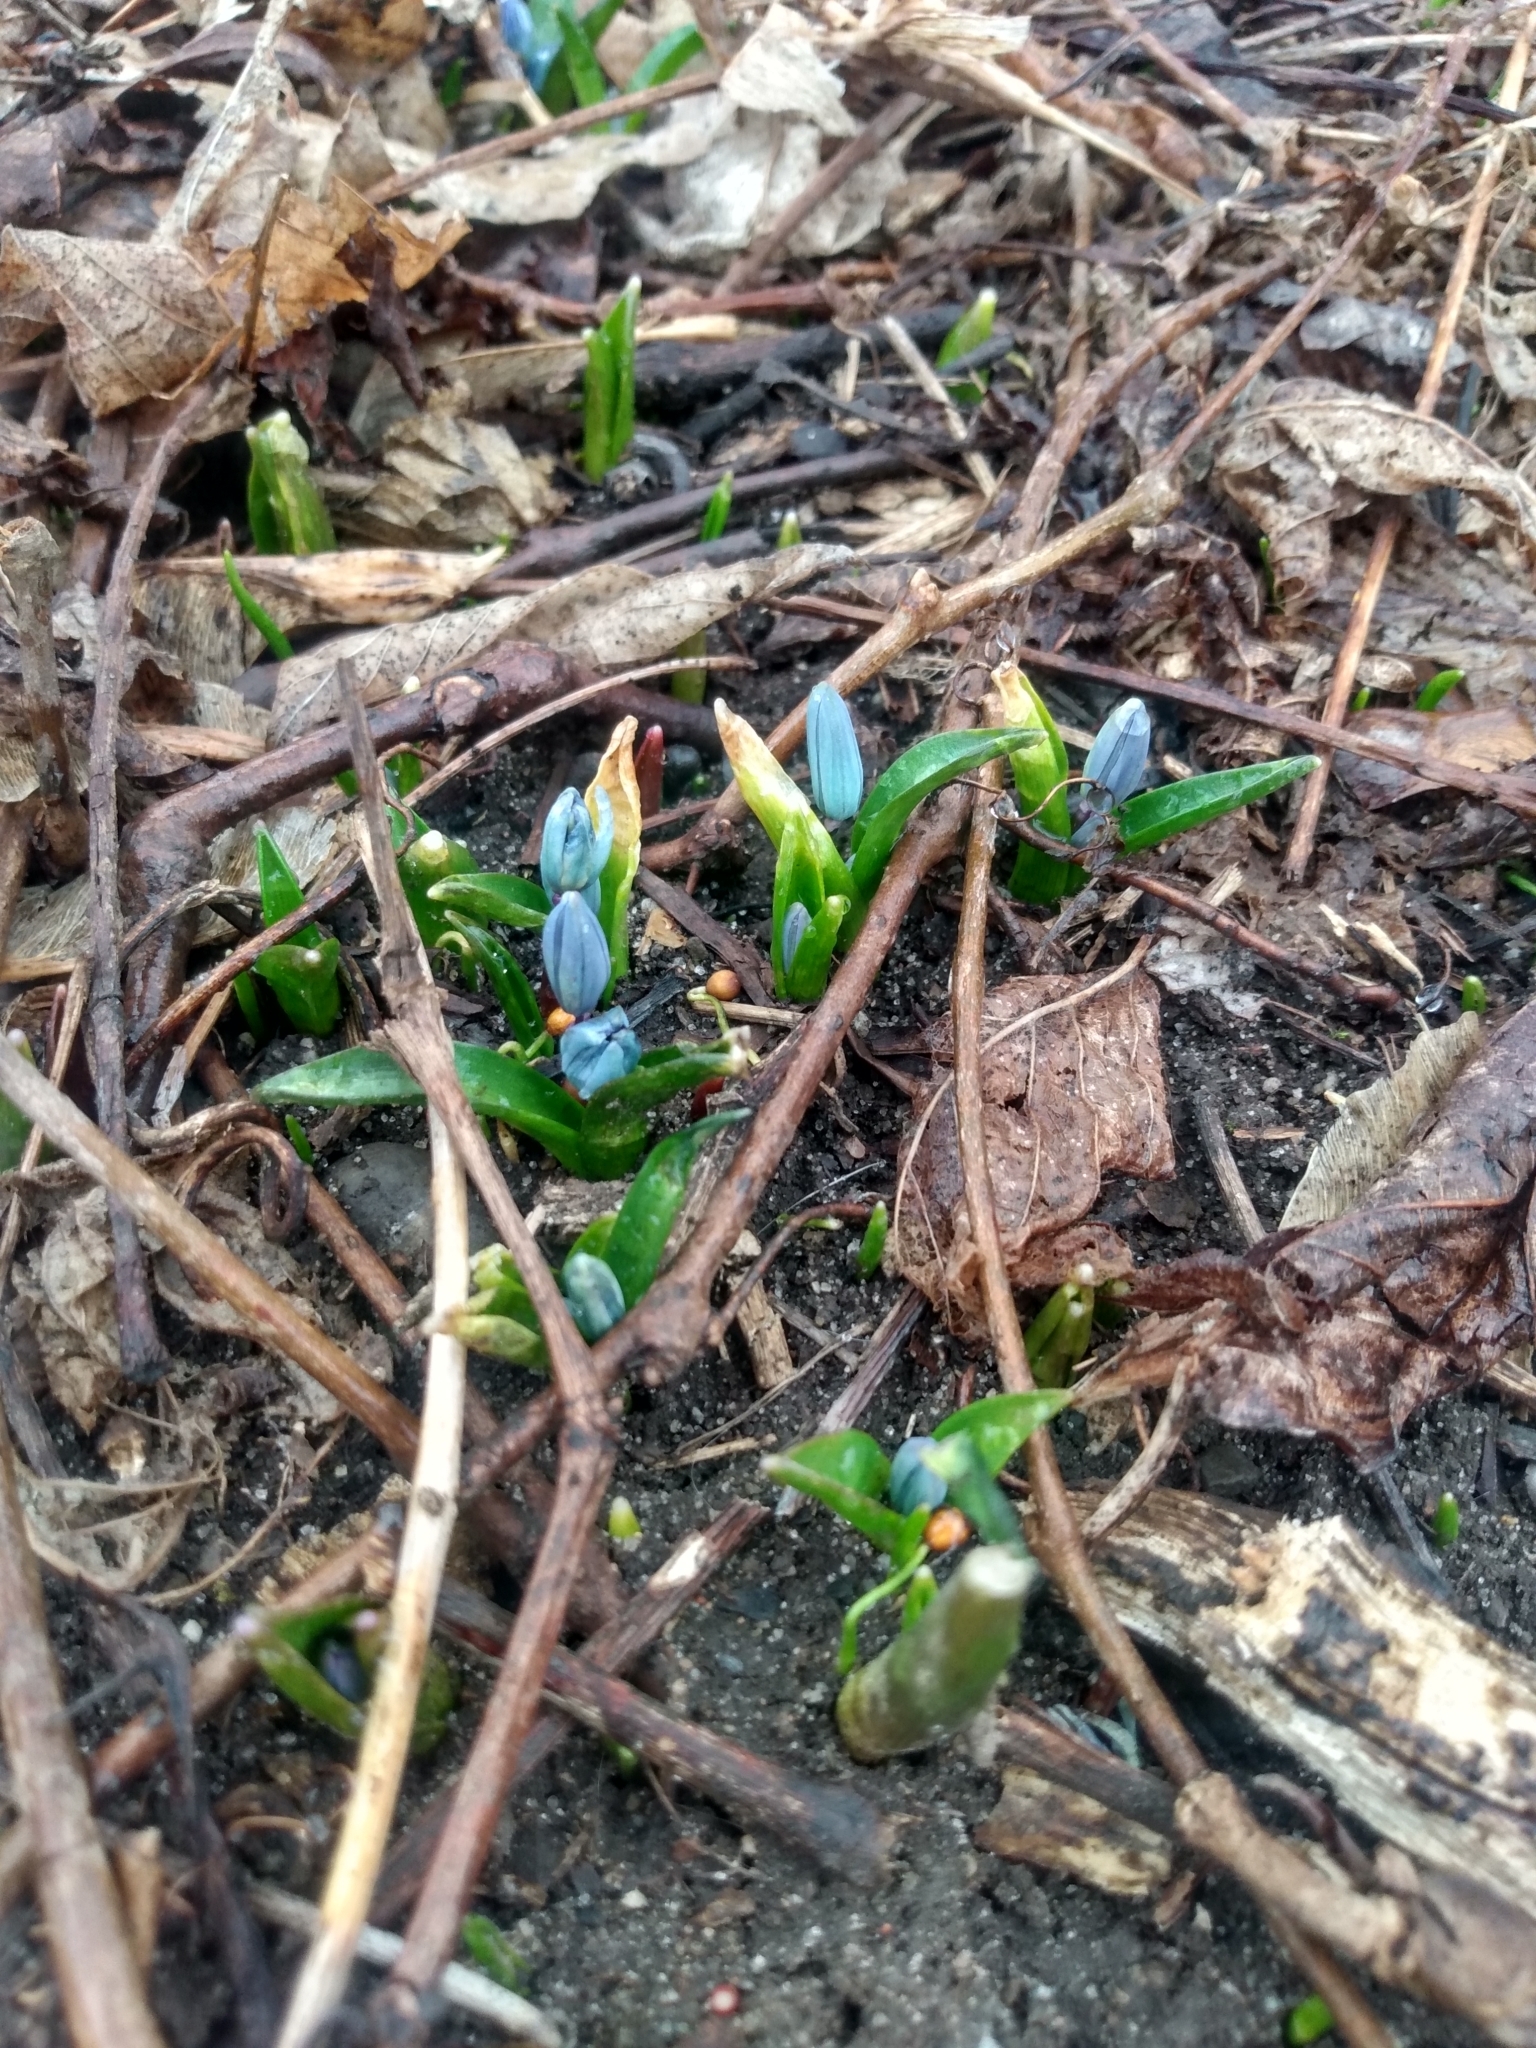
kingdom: Plantae
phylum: Tracheophyta
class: Liliopsida
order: Asparagales
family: Asparagaceae
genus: Scilla
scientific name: Scilla siberica
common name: Siberian squill
